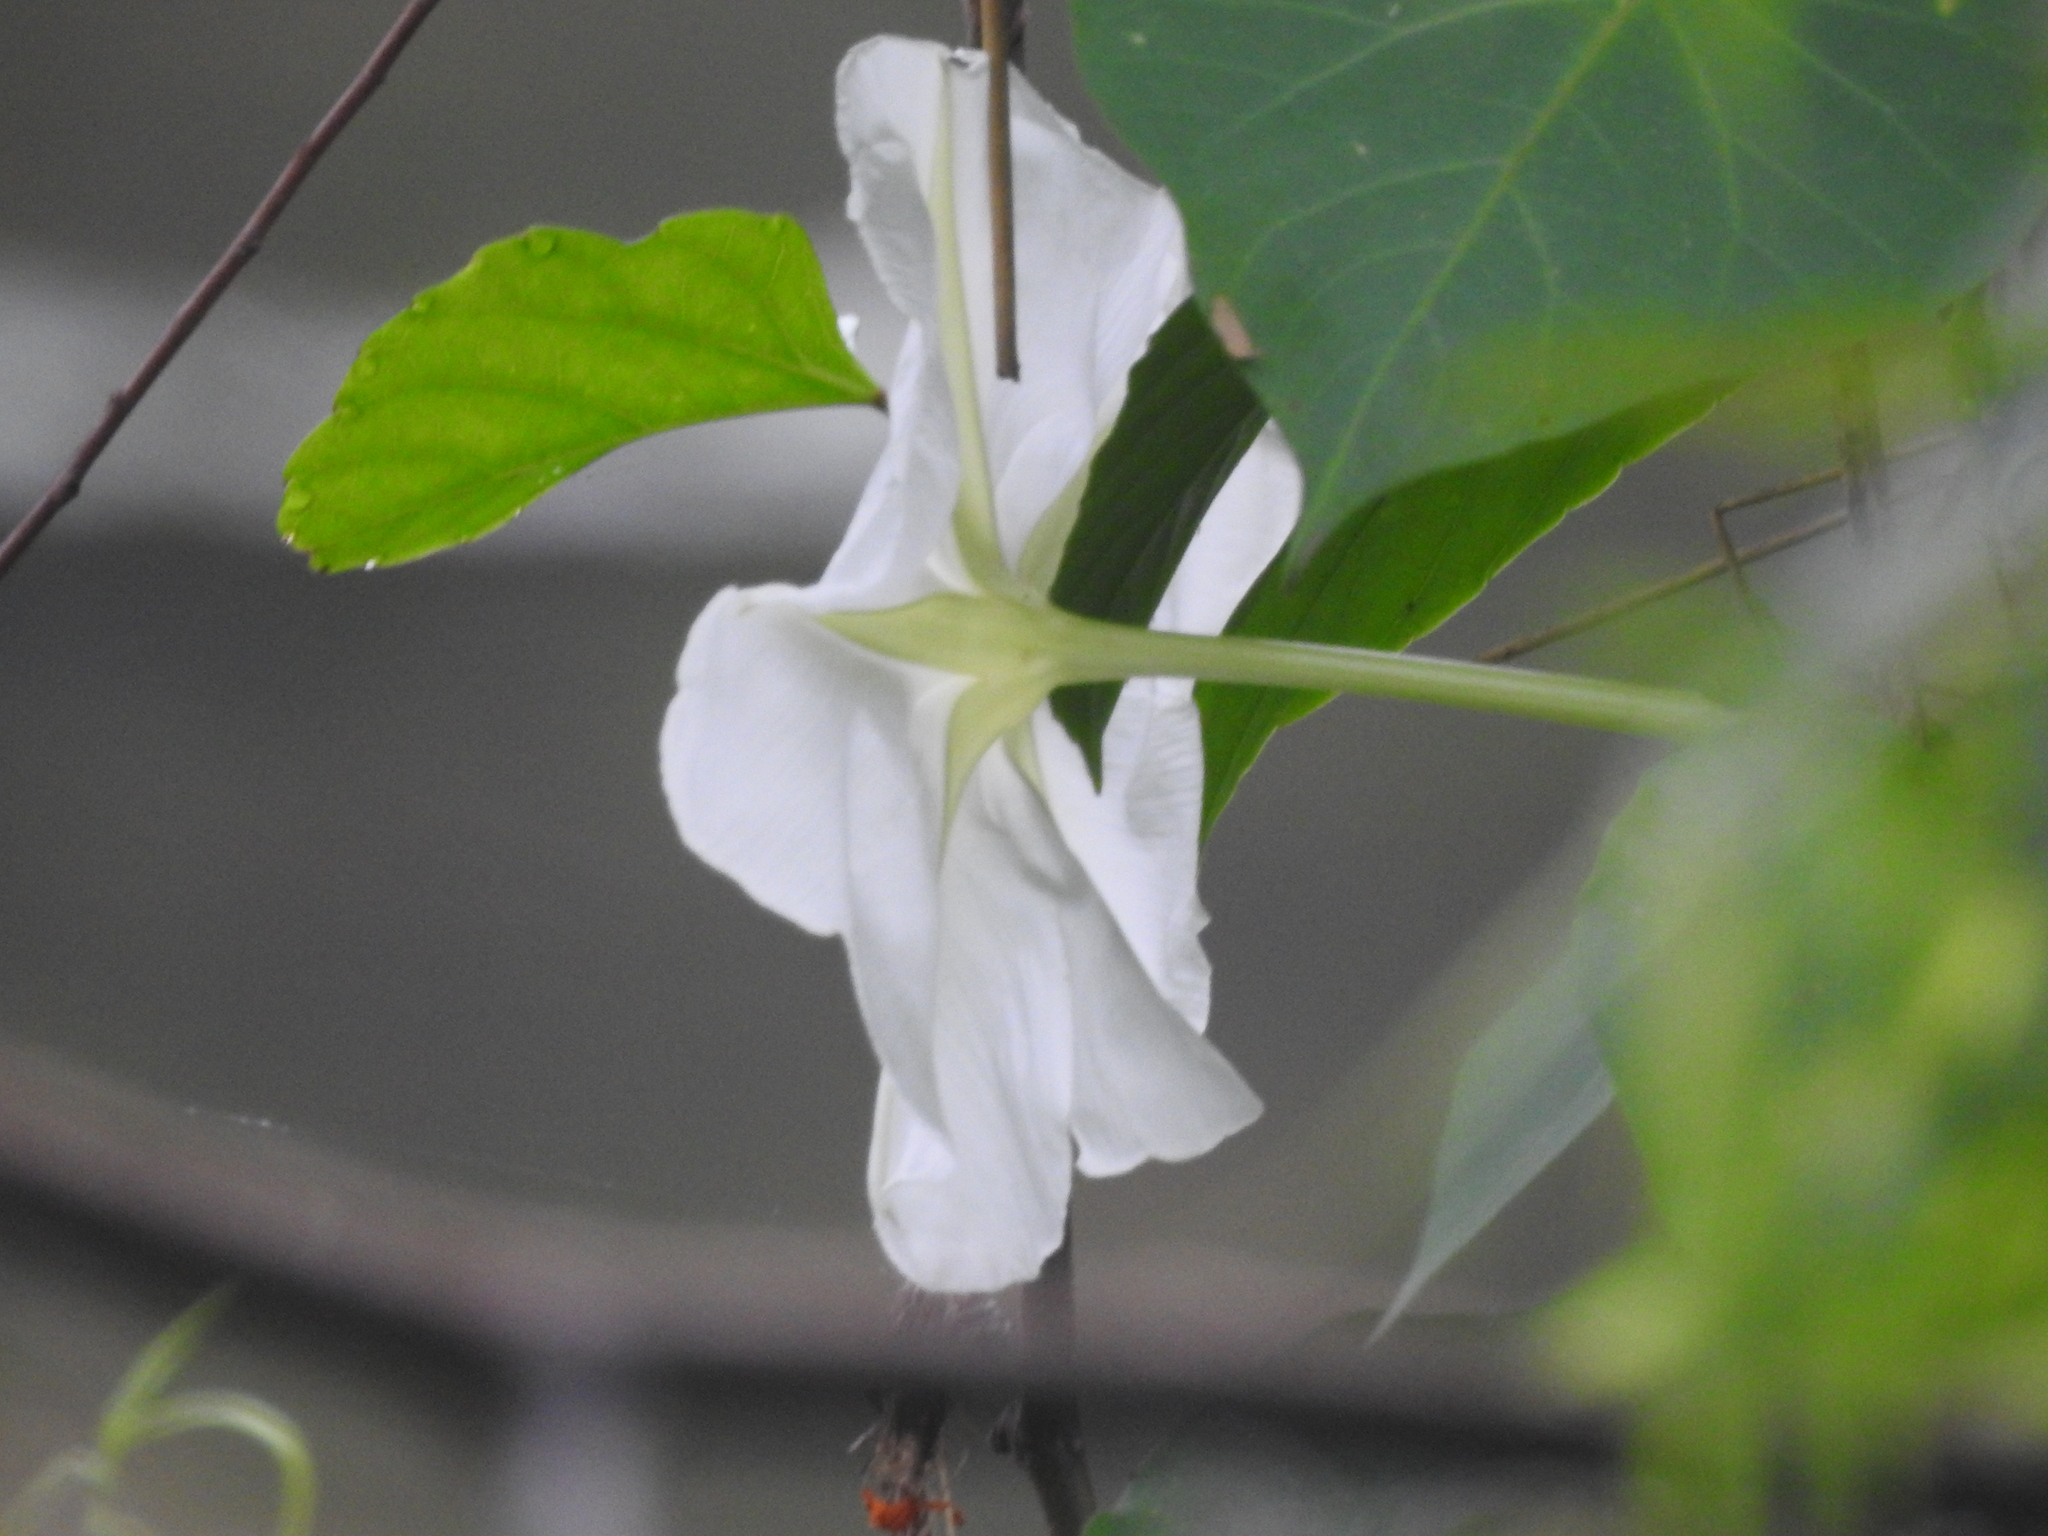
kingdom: Plantae
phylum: Tracheophyta
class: Magnoliopsida
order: Solanales
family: Convolvulaceae
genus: Ipomoea
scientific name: Ipomoea alba
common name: Moonflower
